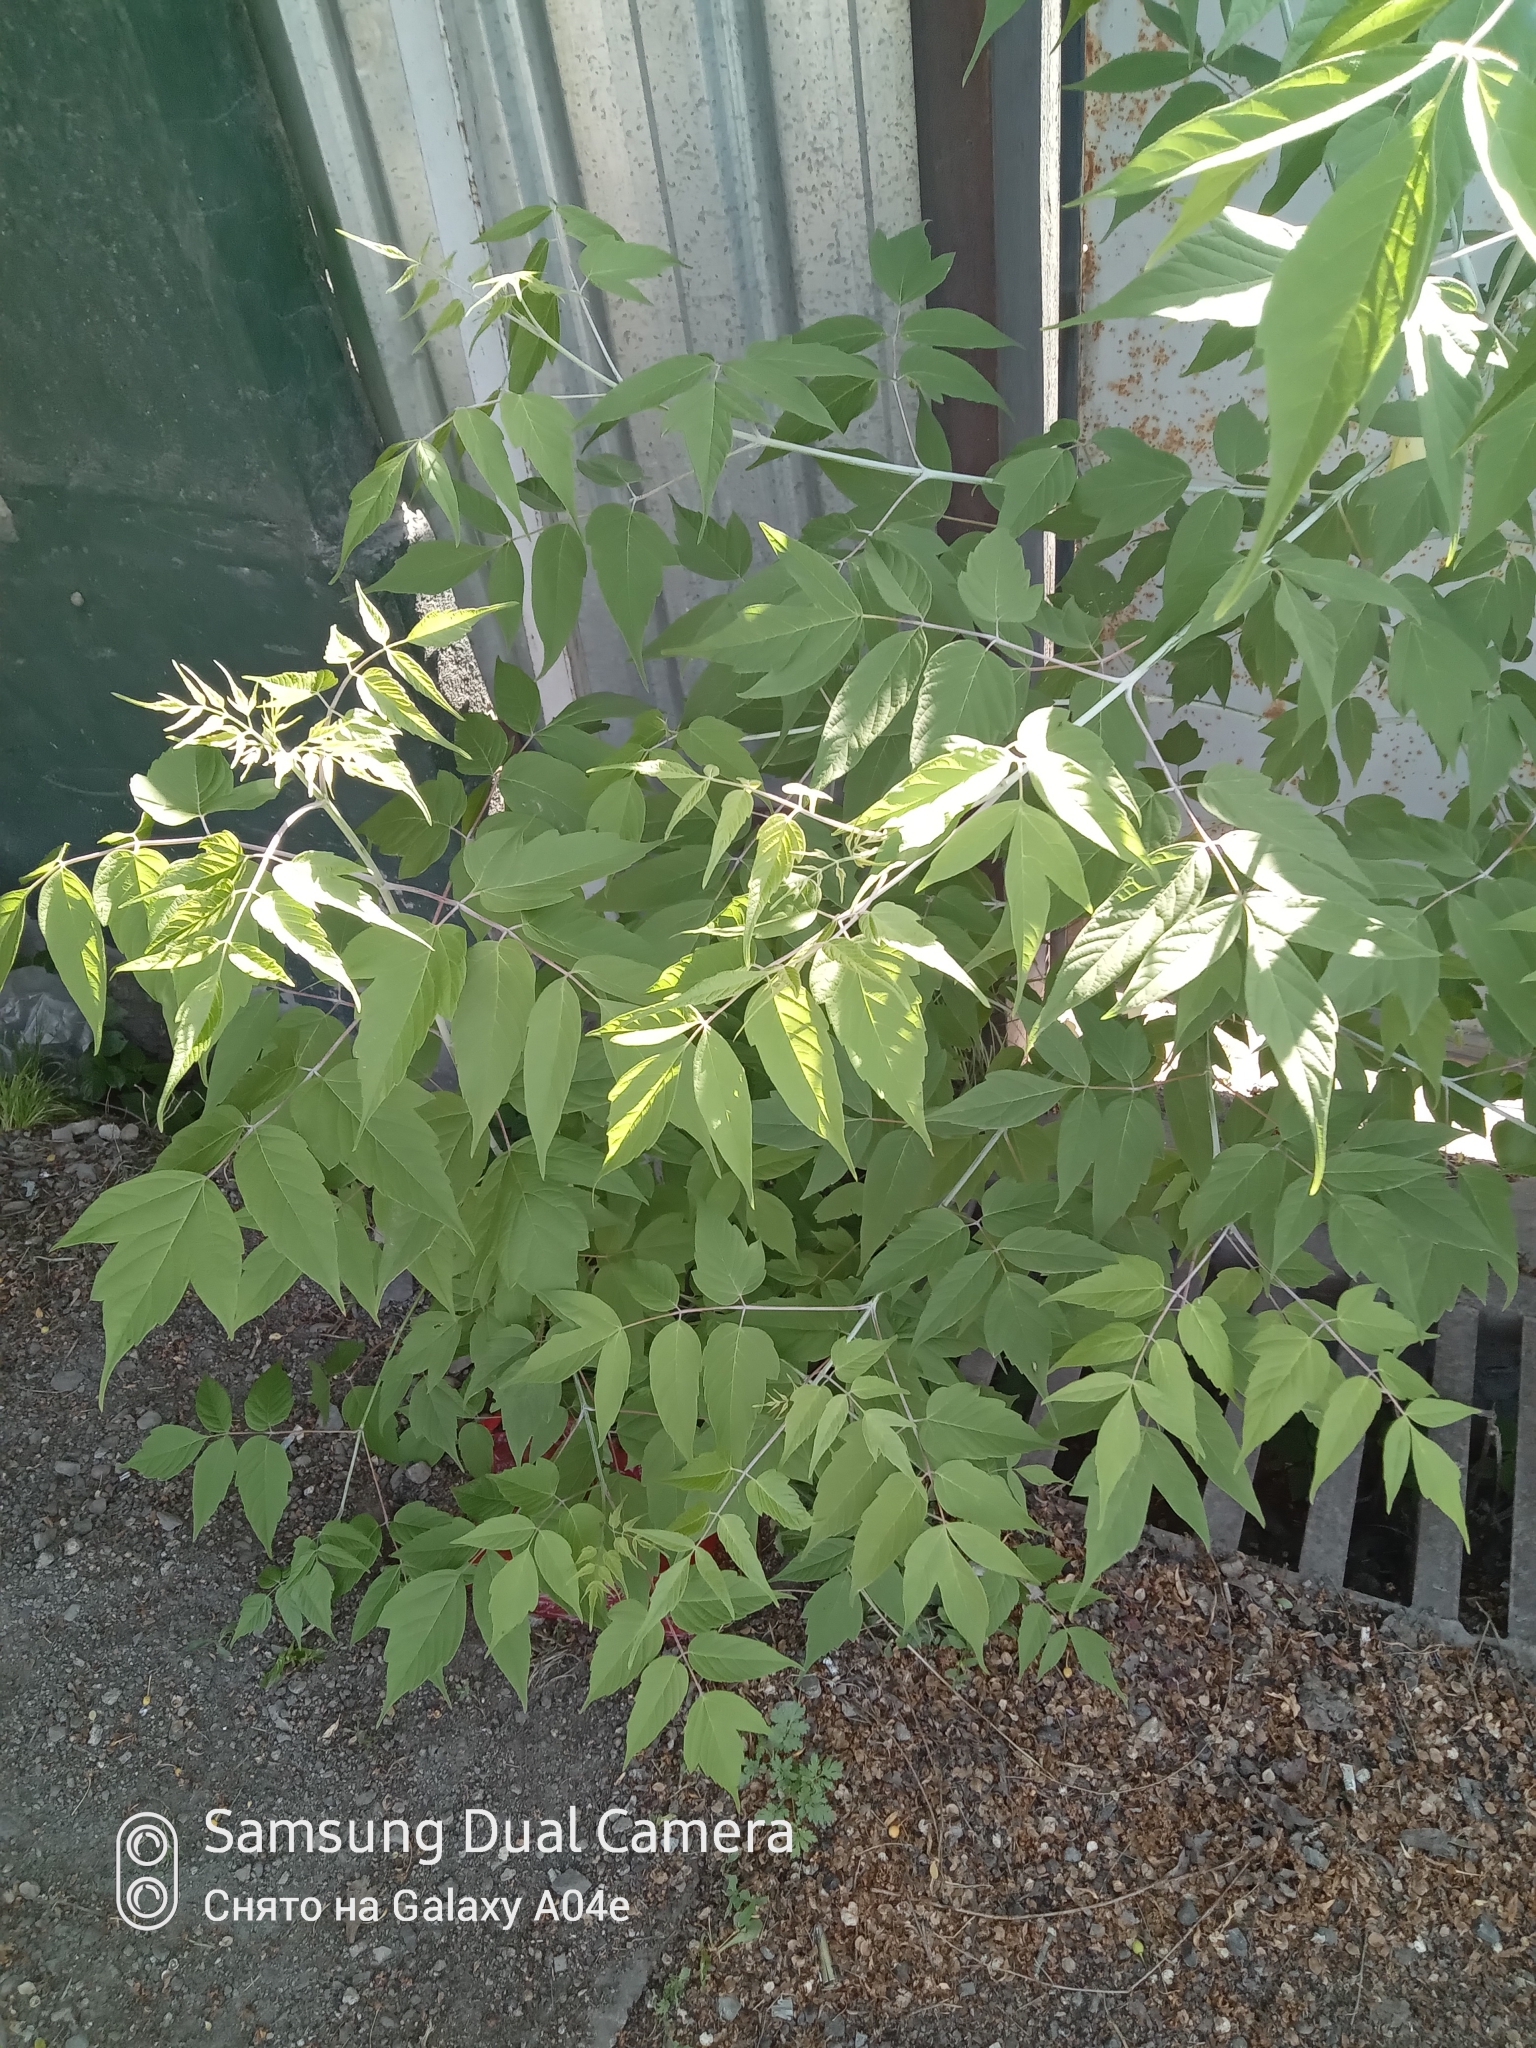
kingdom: Plantae
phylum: Tracheophyta
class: Magnoliopsida
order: Sapindales
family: Sapindaceae
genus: Acer
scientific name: Acer negundo
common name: Ashleaf maple
